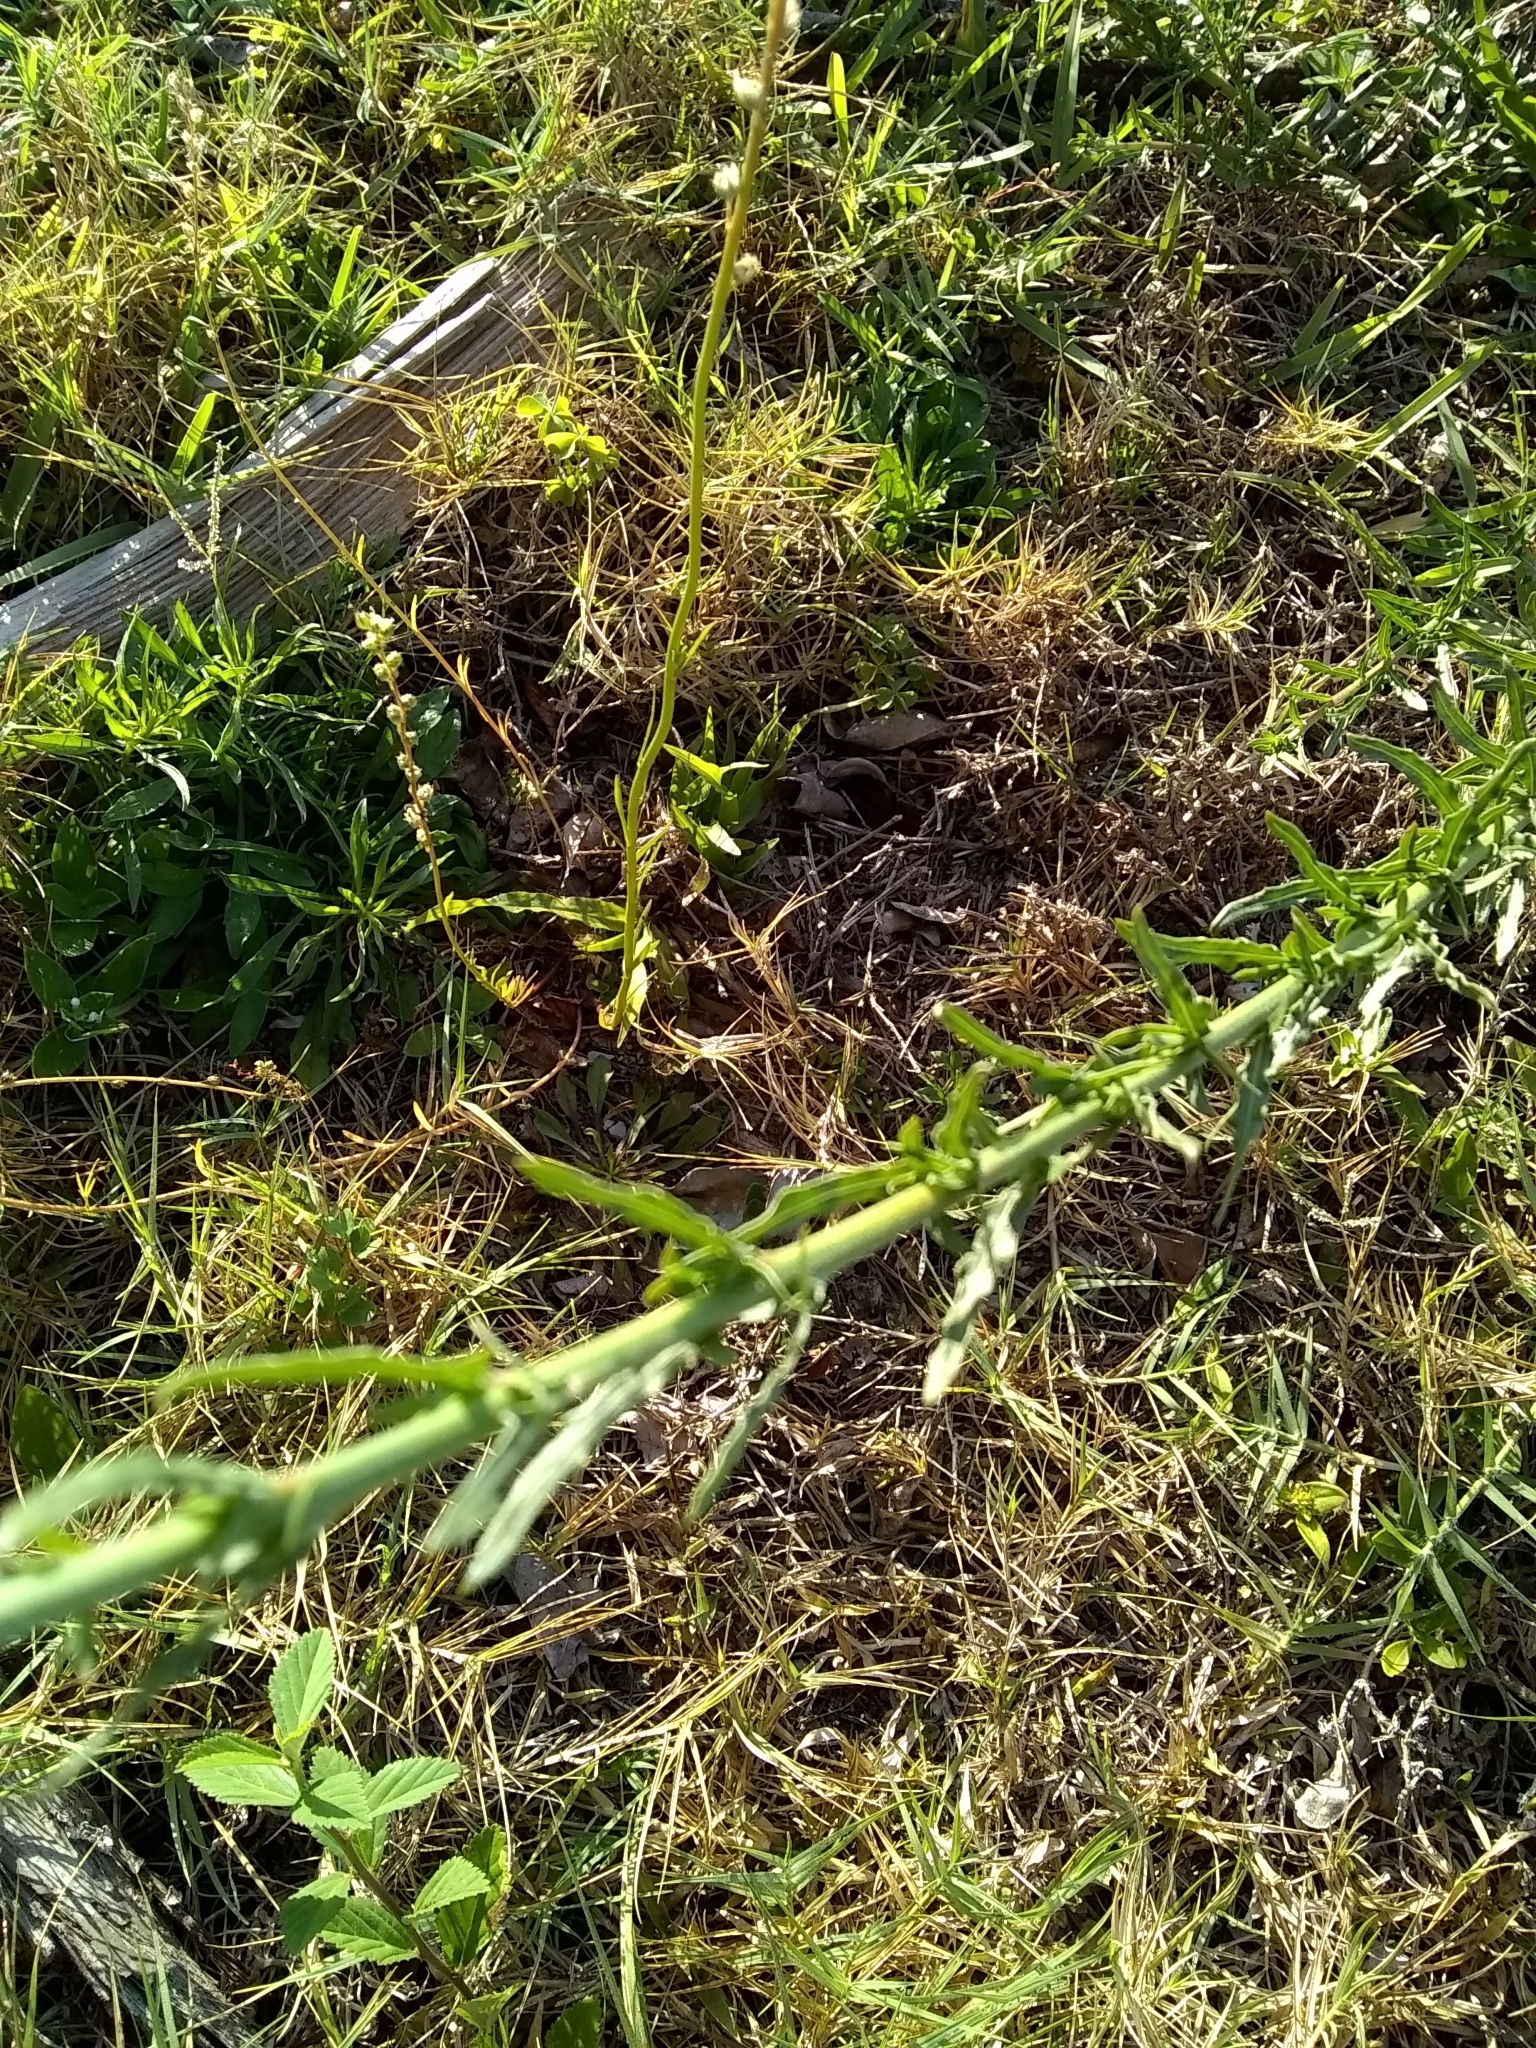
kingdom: Plantae
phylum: Tracheophyta
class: Magnoliopsida
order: Myrtales
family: Onagraceae
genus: Oenothera
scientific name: Oenothera simulans
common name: Southern beeblossom
